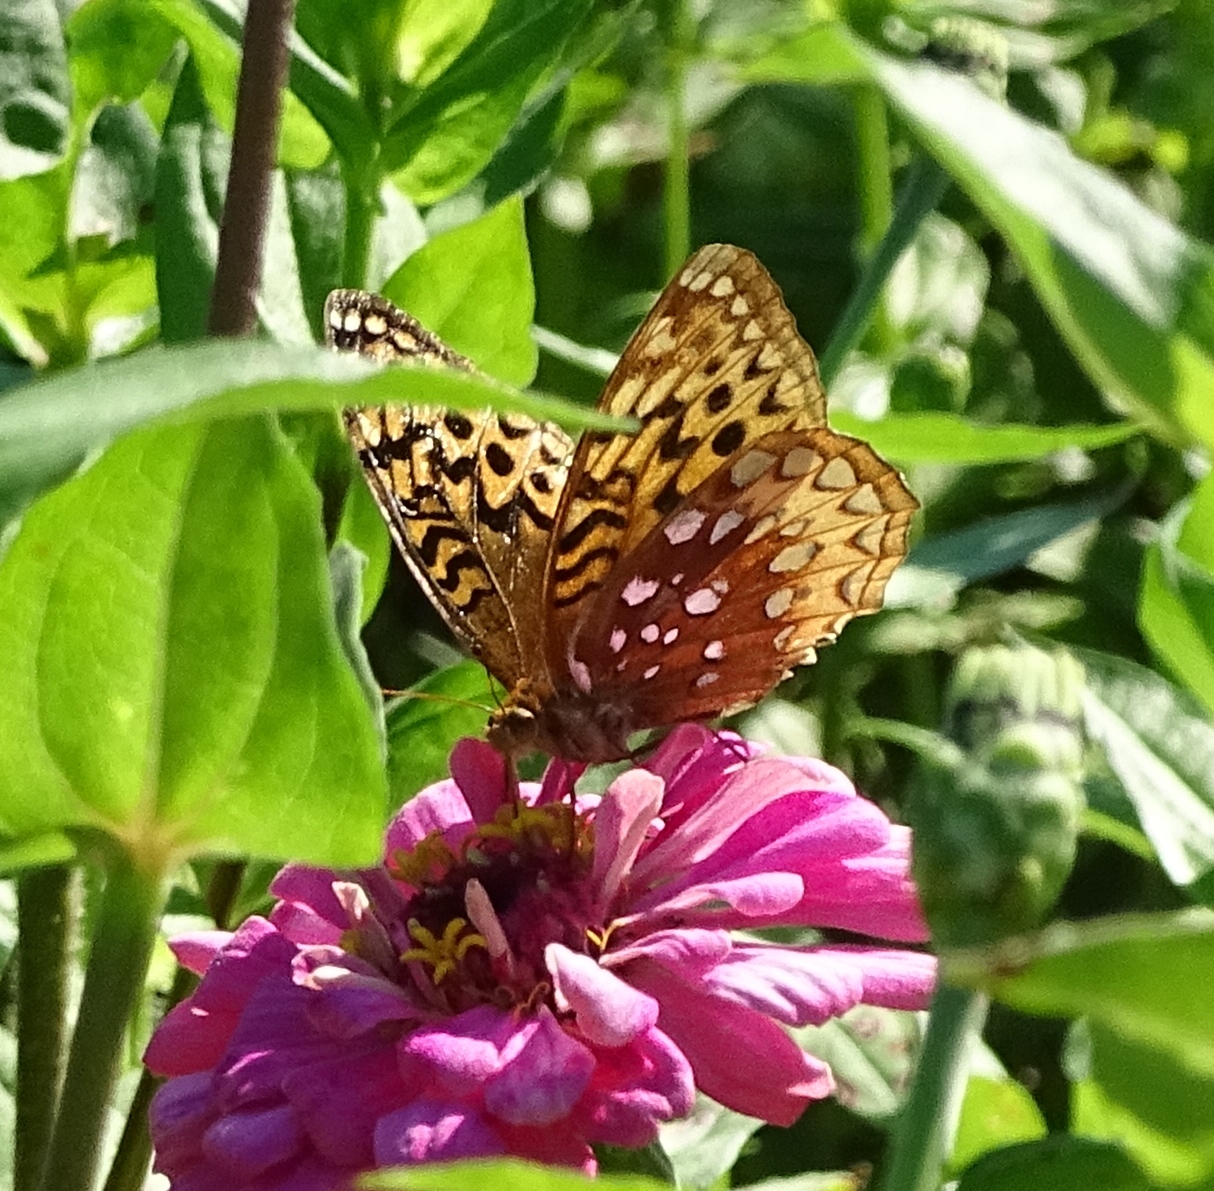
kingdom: Animalia
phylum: Arthropoda
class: Insecta
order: Lepidoptera
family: Nymphalidae
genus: Speyeria
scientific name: Speyeria cybele
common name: Great spangled fritillary
